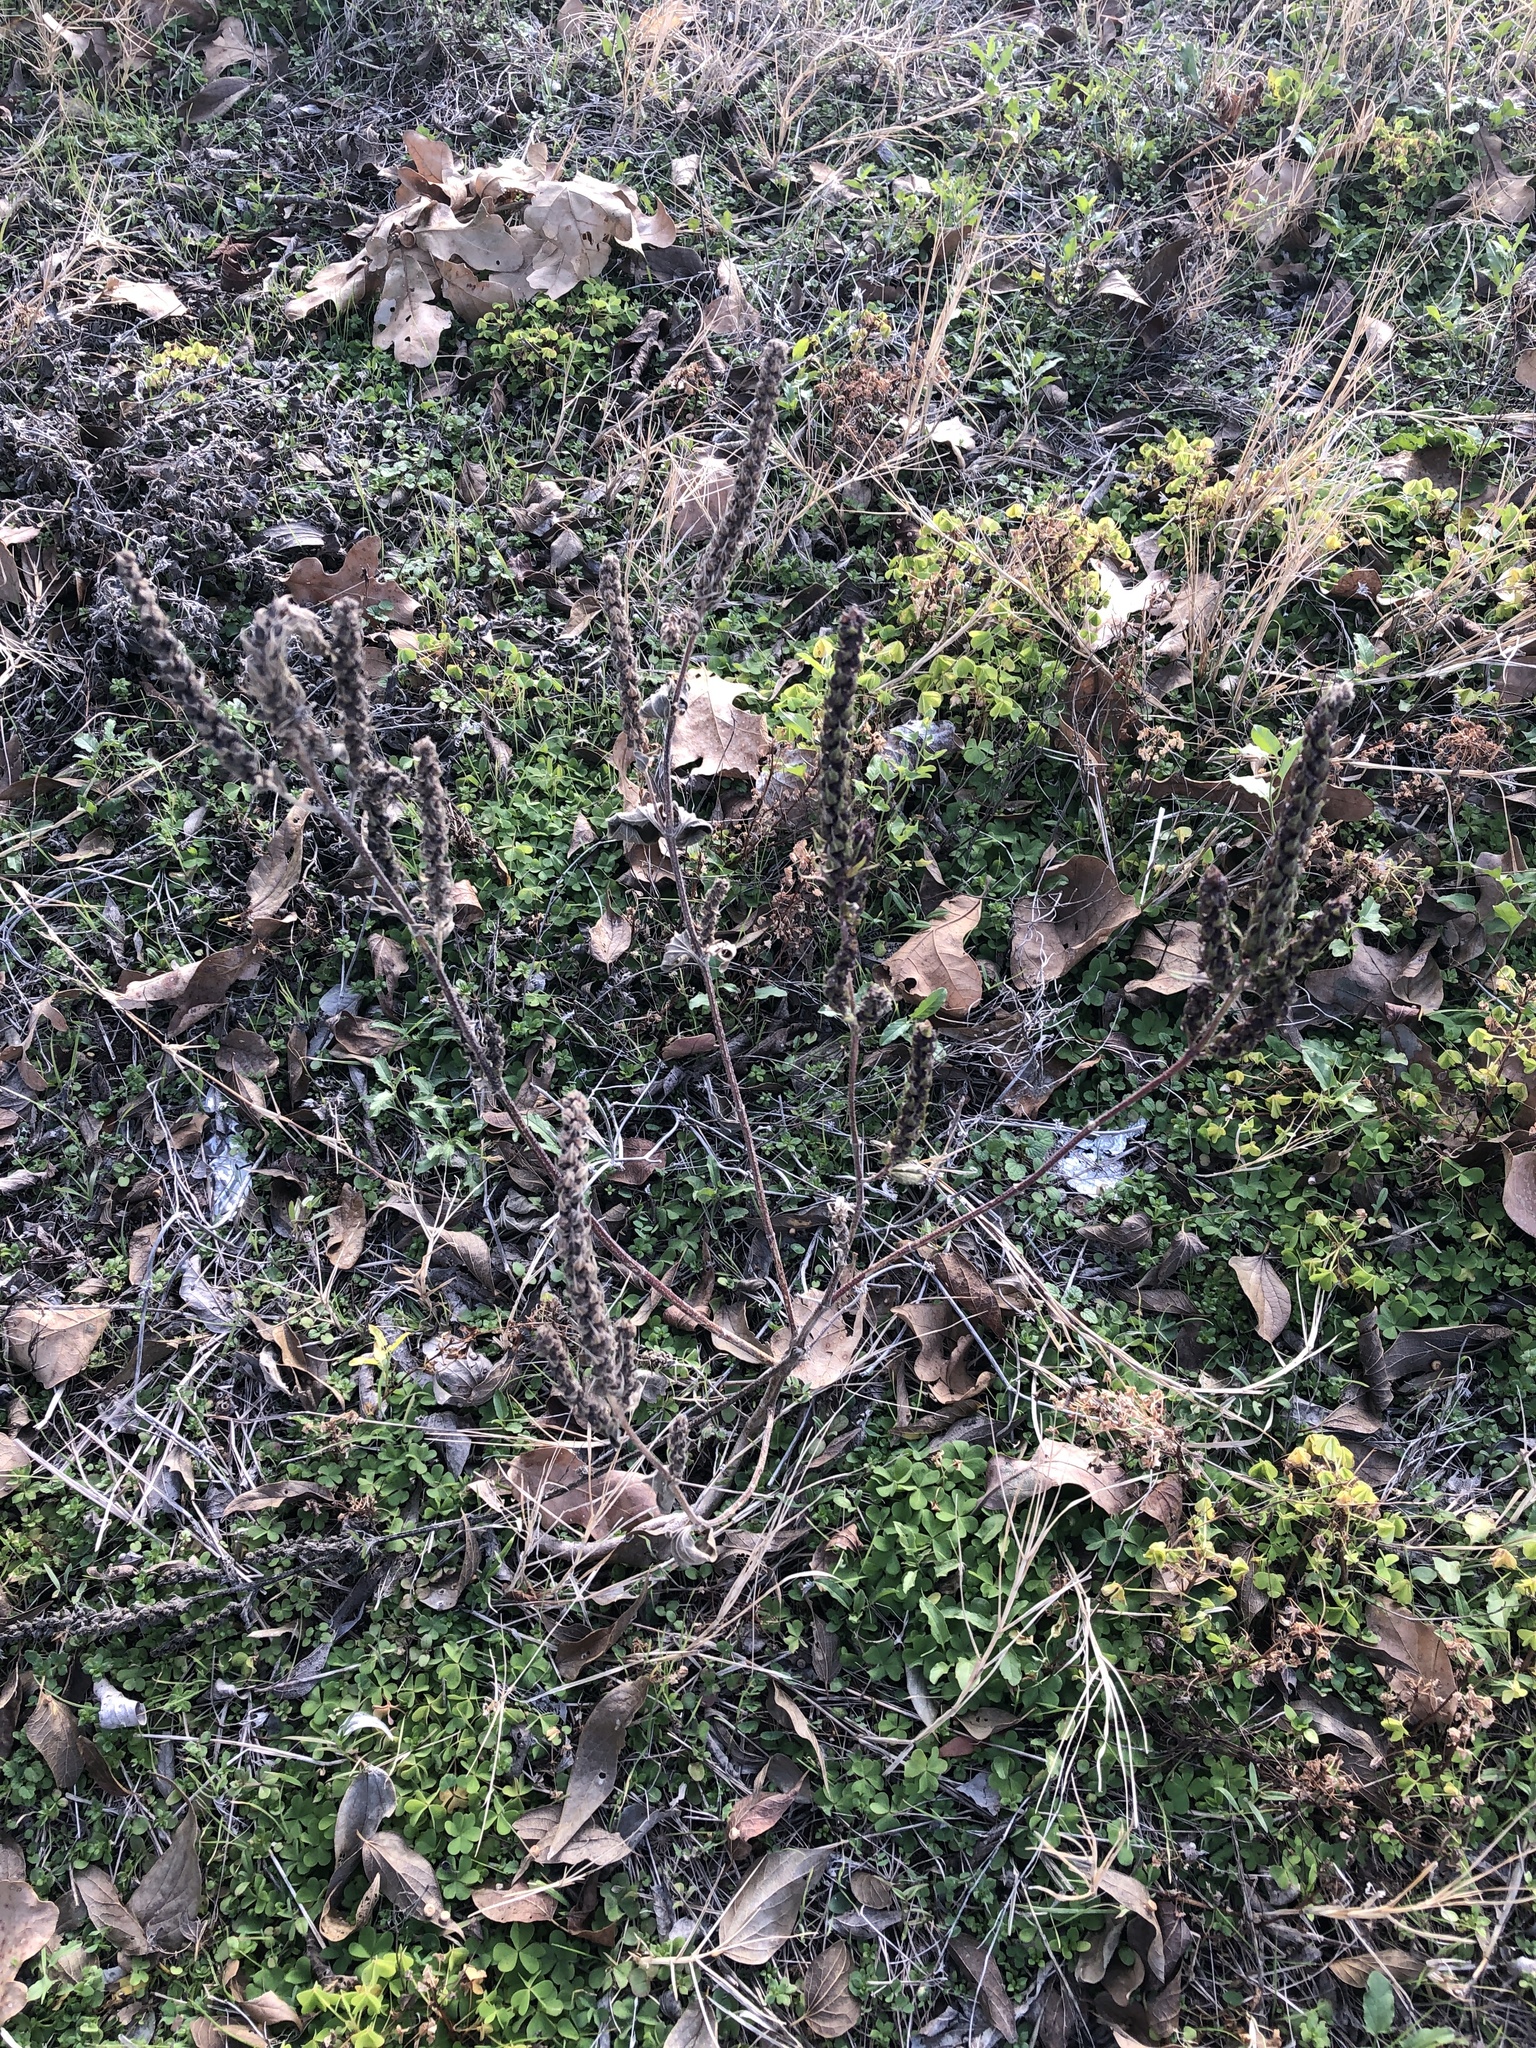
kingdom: Plantae
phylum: Tracheophyta
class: Magnoliopsida
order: Asterales
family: Asteraceae
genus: Iva
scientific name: Iva annua
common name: Marsh-elder
